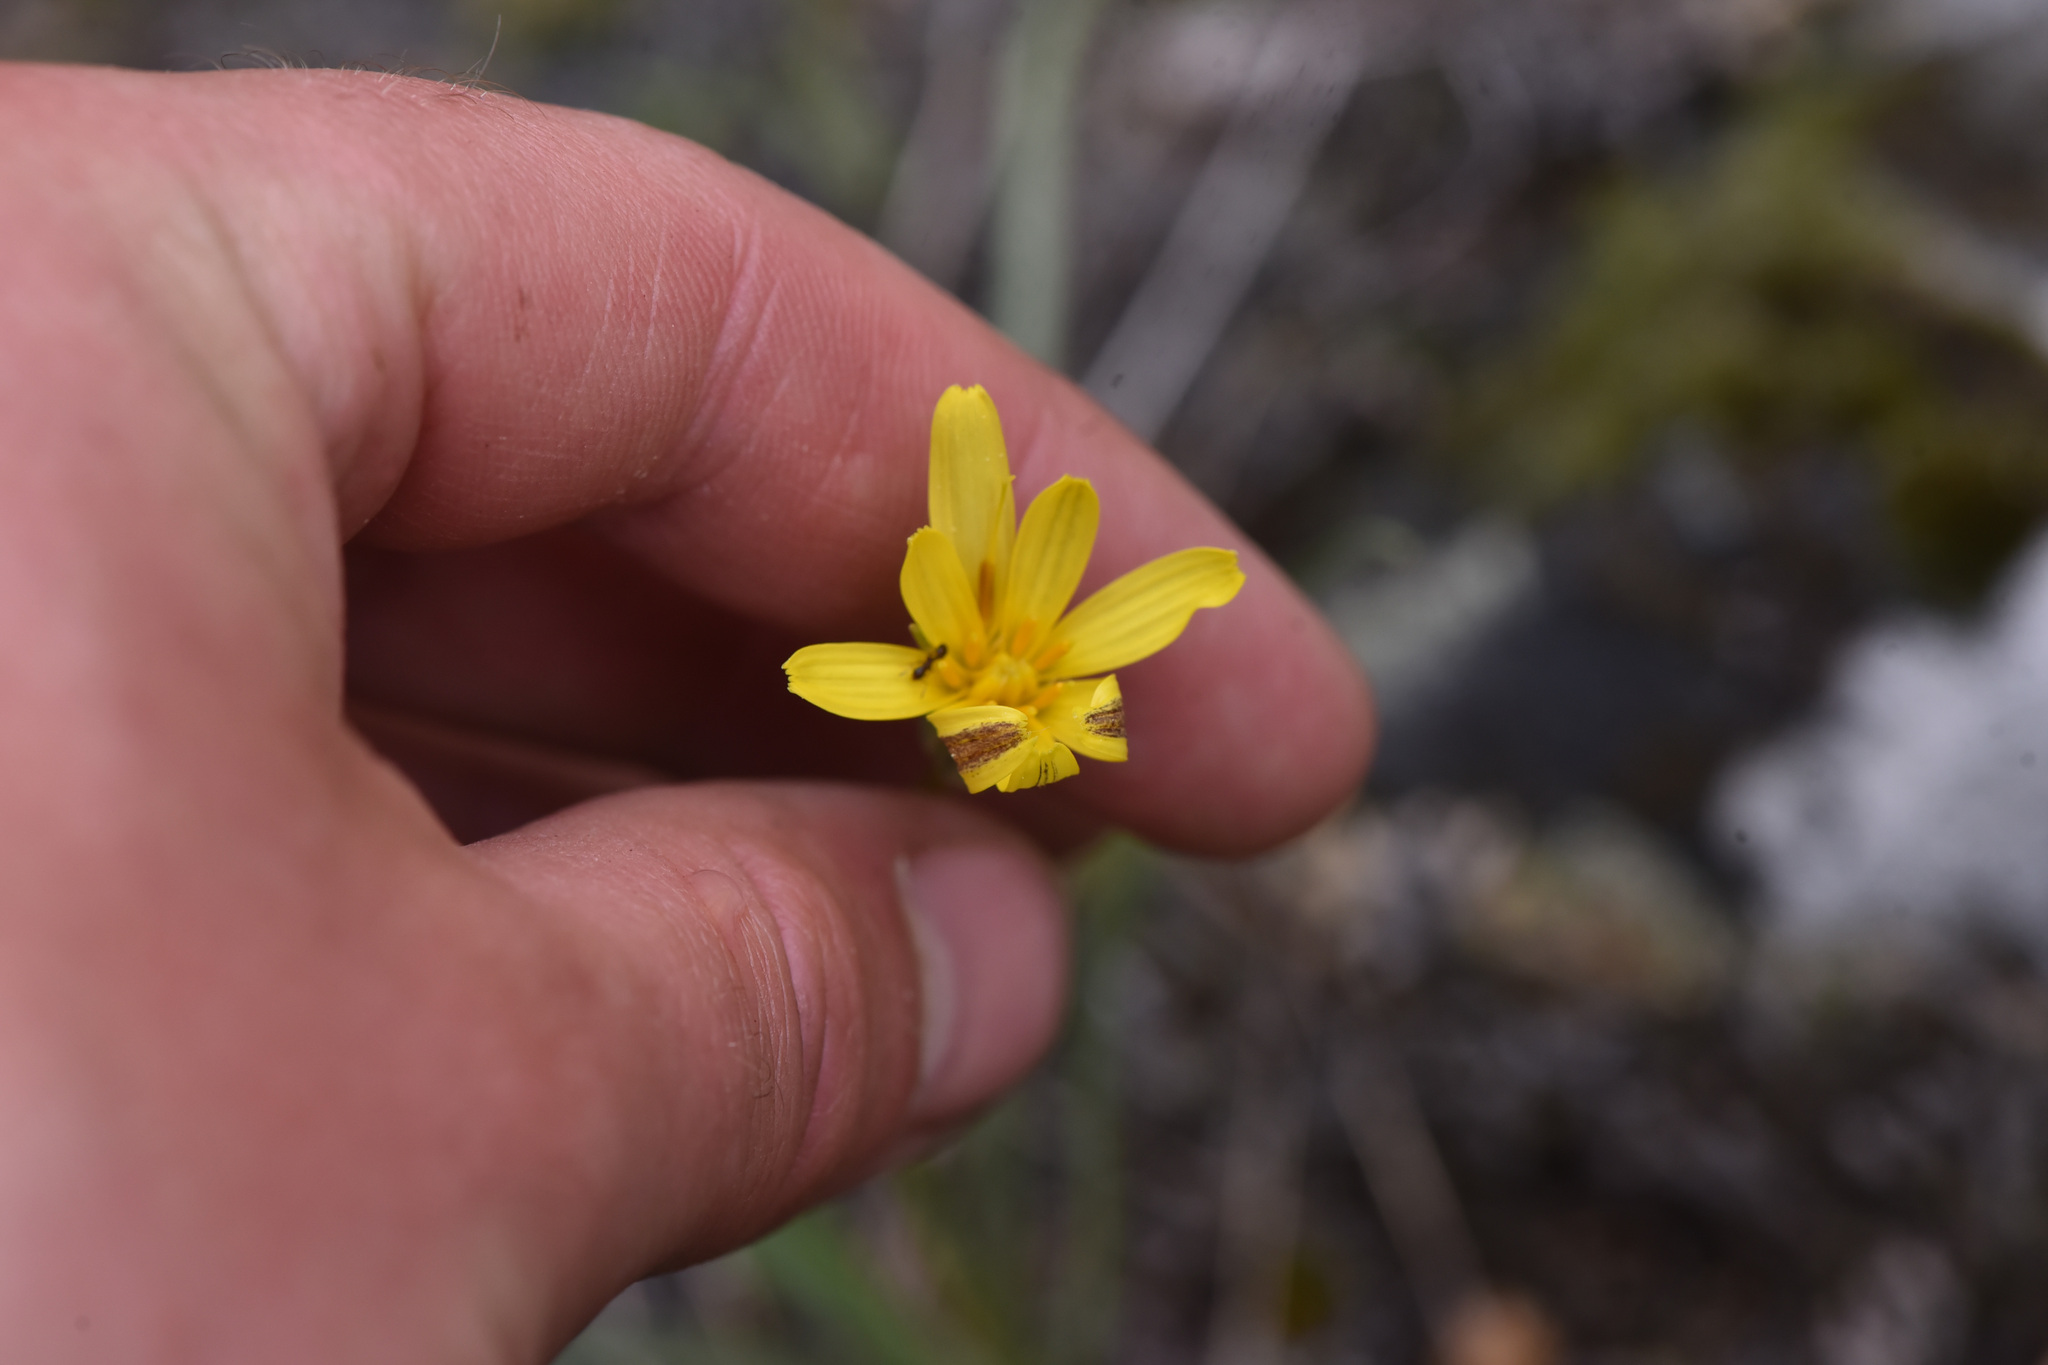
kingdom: Plantae
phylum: Tracheophyta
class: Magnoliopsida
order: Asterales
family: Asteraceae
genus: Microseris
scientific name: Microseris troximoides
